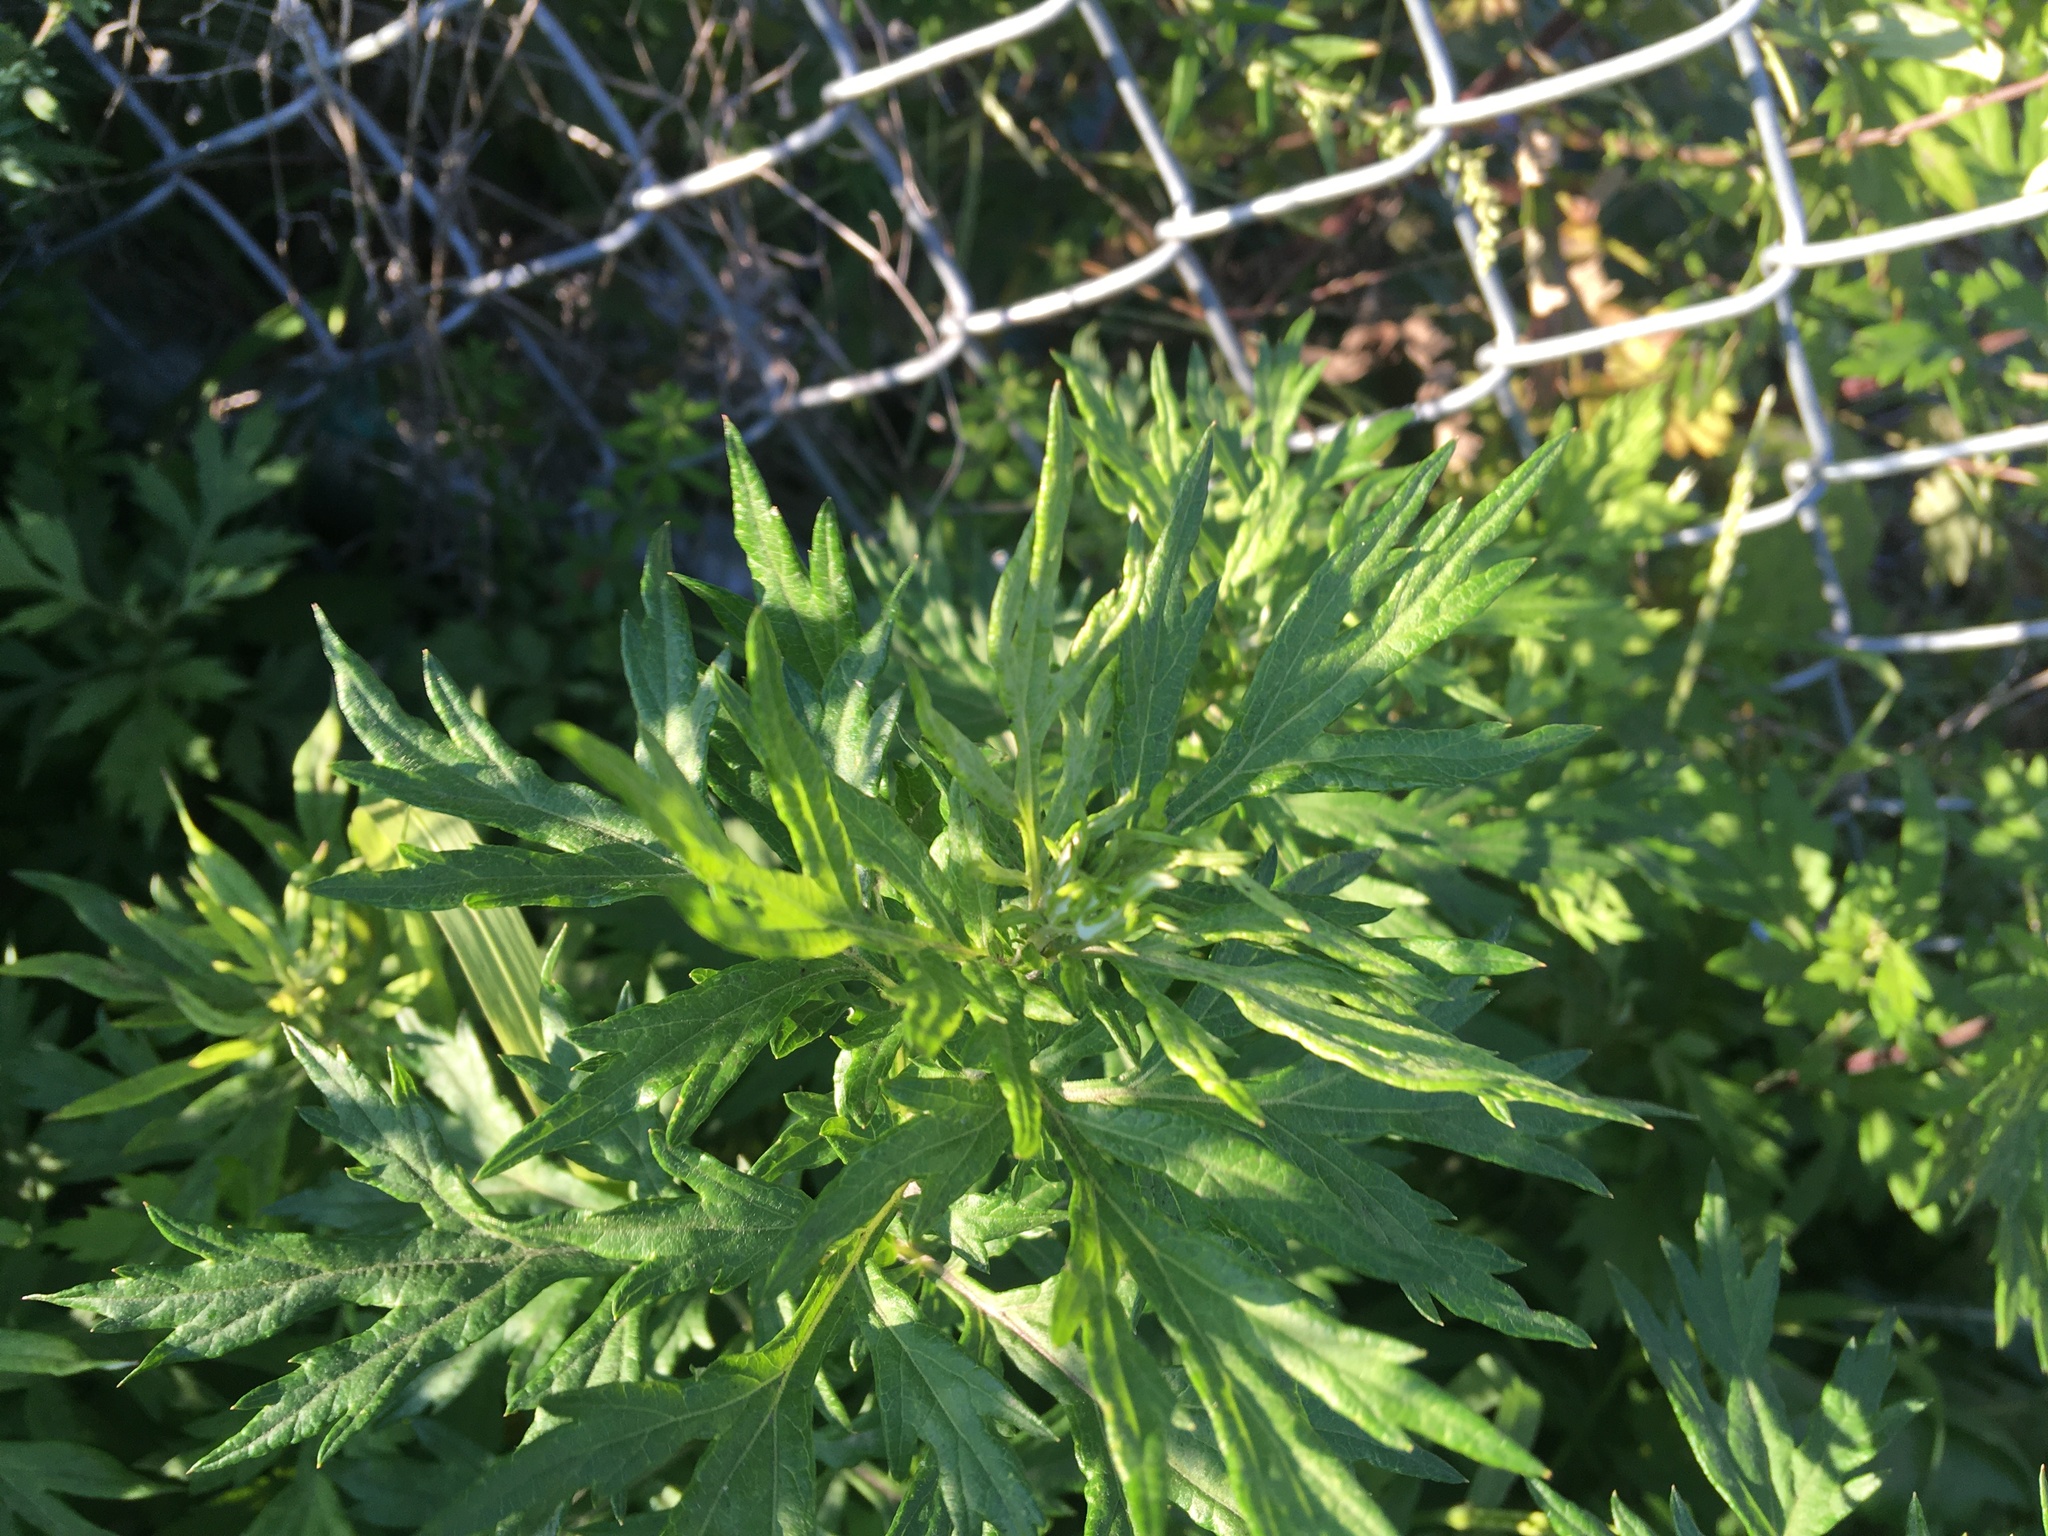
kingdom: Plantae
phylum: Tracheophyta
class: Magnoliopsida
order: Asterales
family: Asteraceae
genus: Artemisia
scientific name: Artemisia vulgaris
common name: Mugwort
